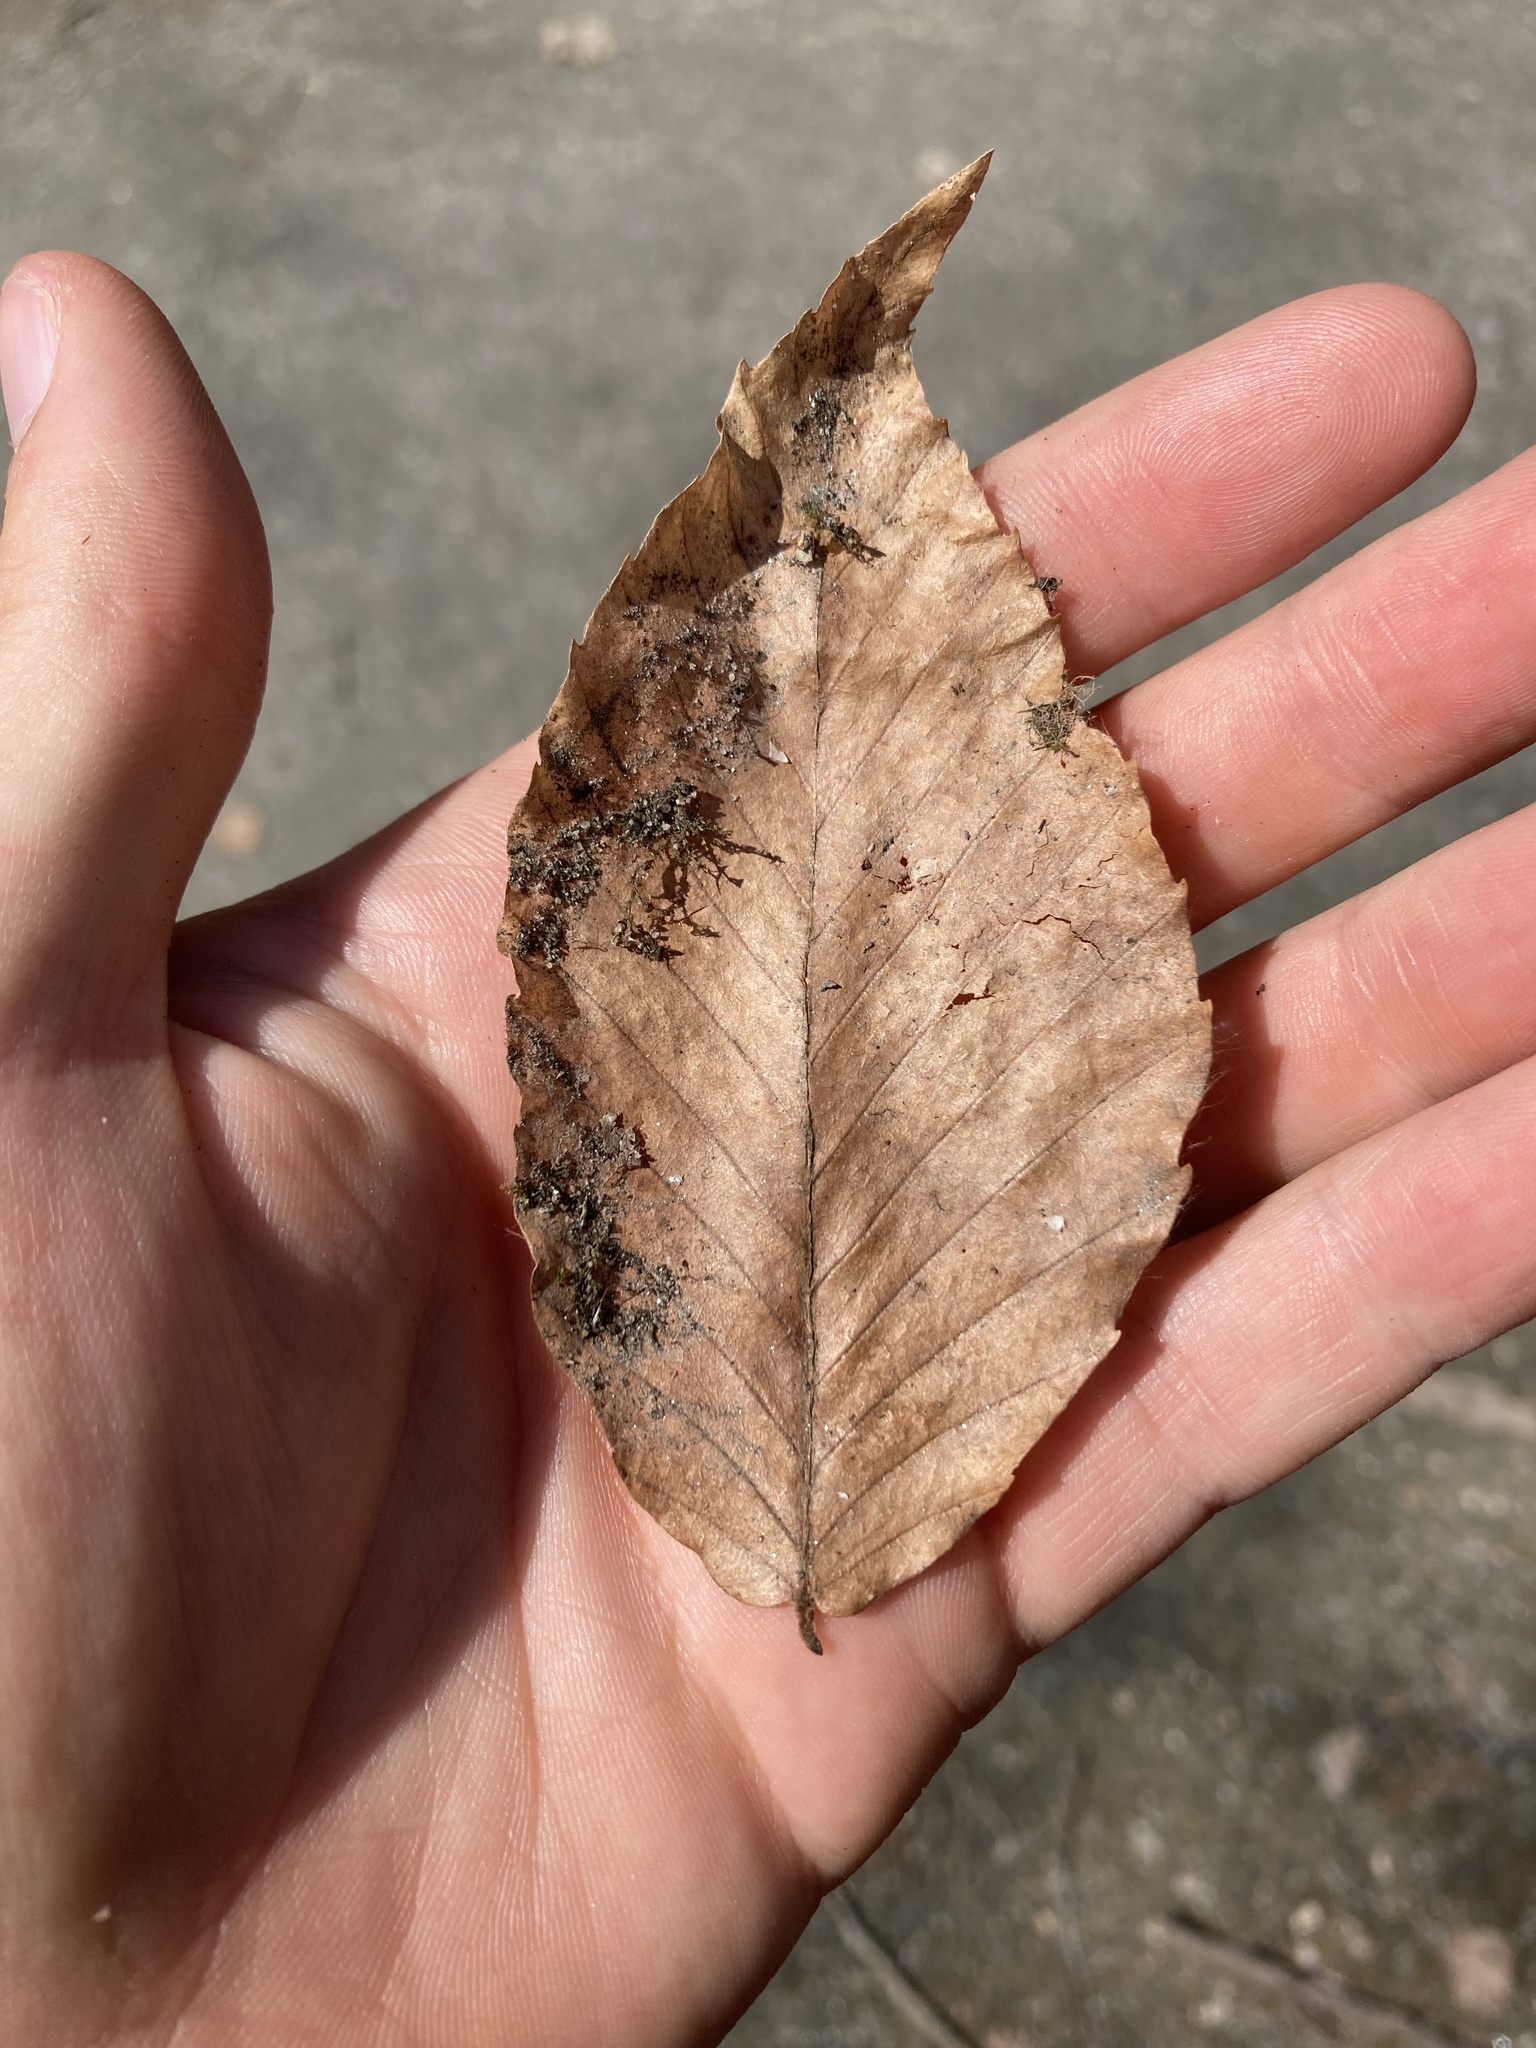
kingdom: Plantae
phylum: Tracheophyta
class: Magnoliopsida
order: Fagales
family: Fagaceae
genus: Fagus
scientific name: Fagus grandifolia
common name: American beech
